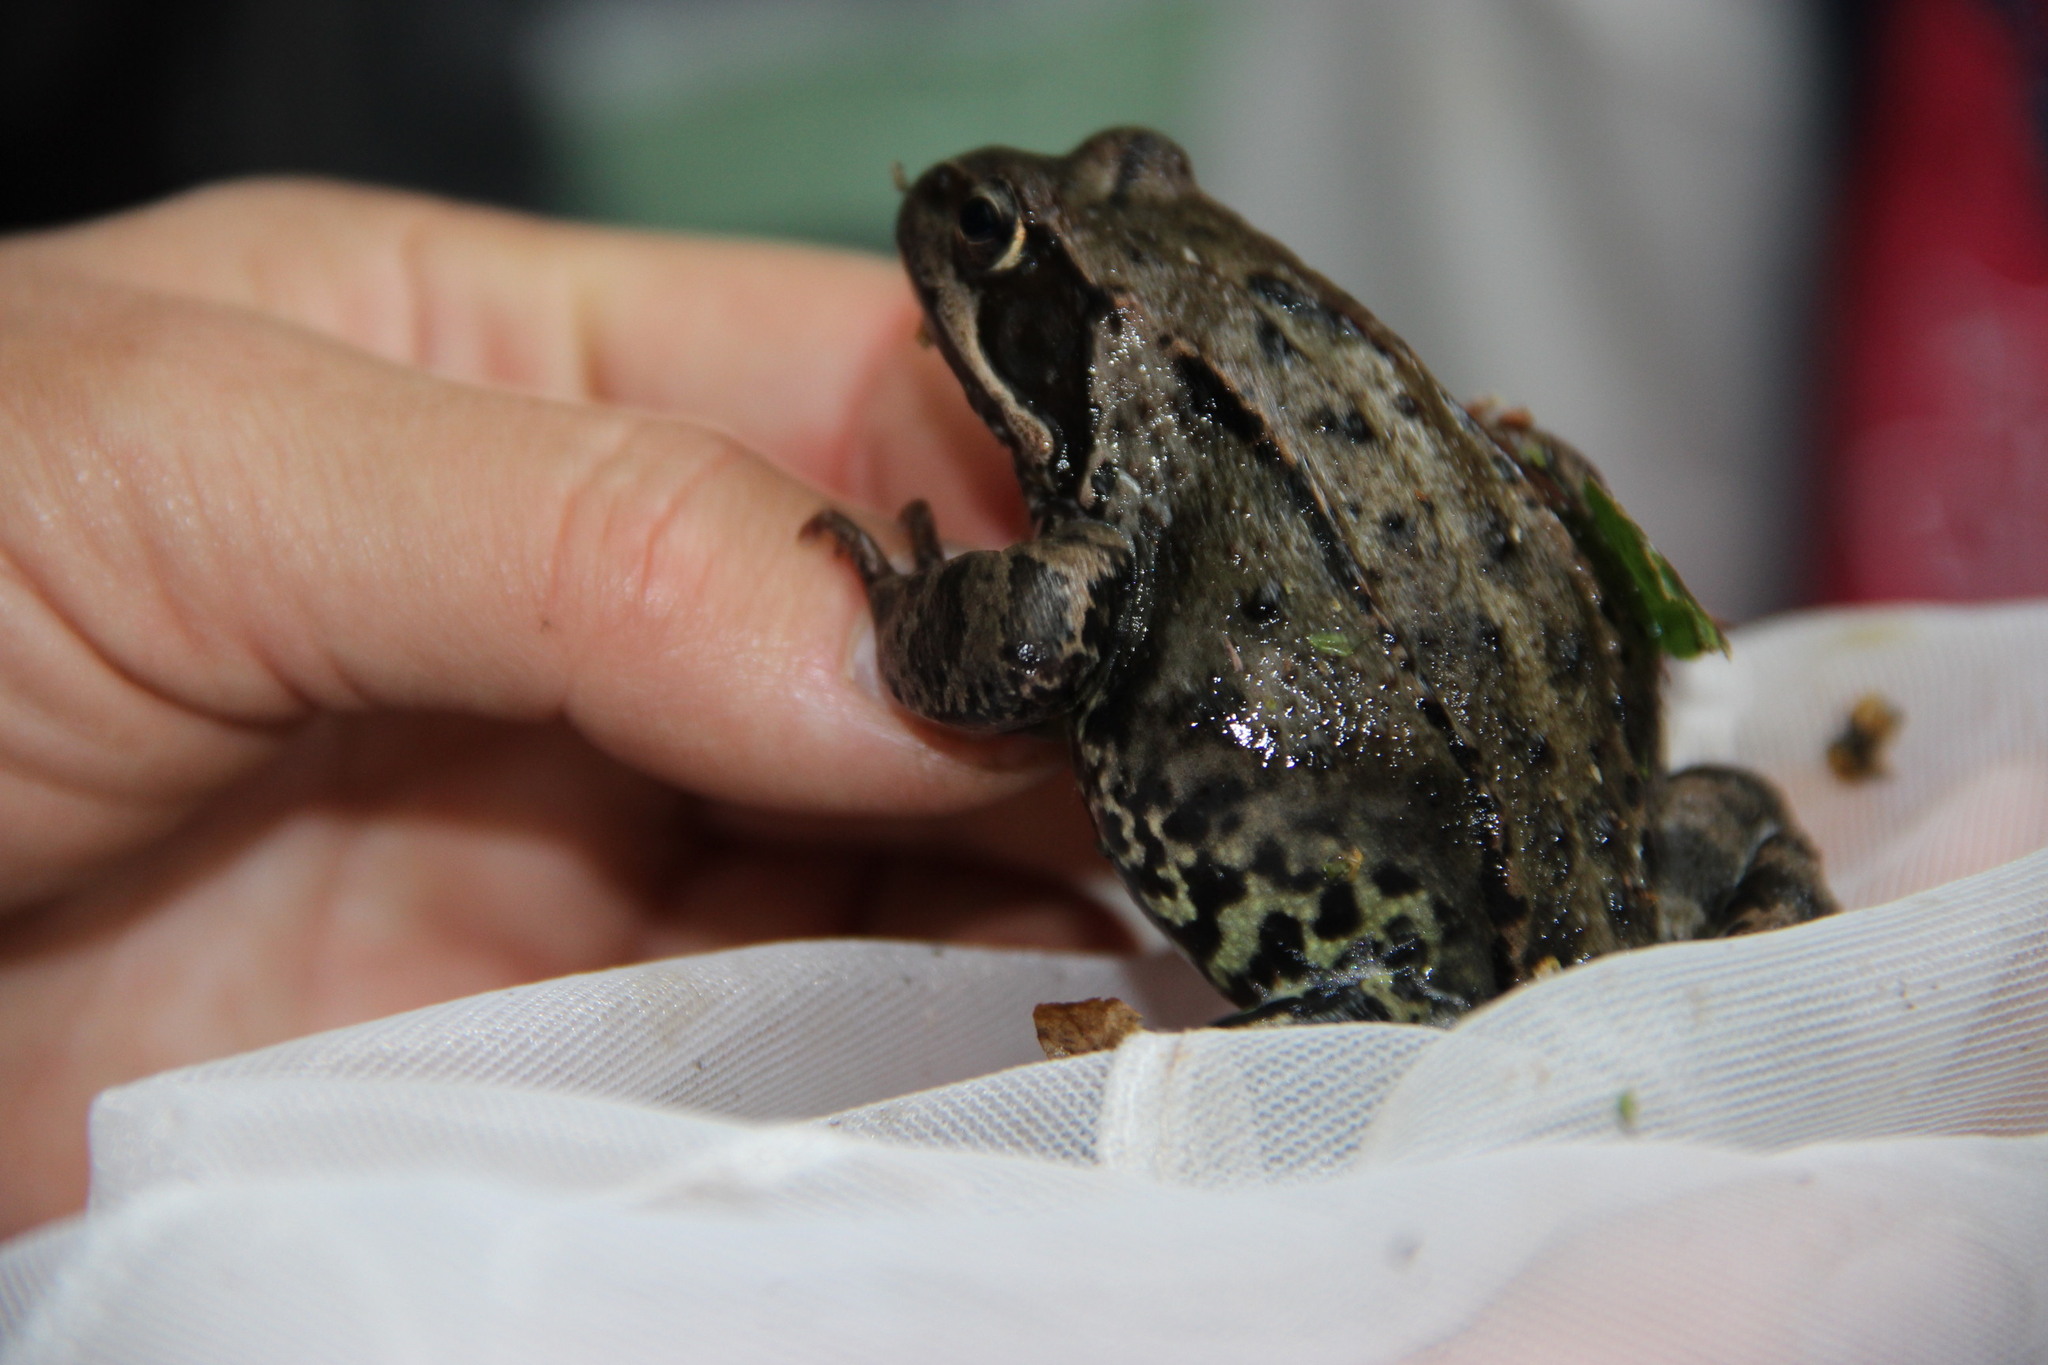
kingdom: Animalia
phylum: Chordata
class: Amphibia
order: Anura
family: Ranidae
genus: Rana
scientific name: Rana temporaria
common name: Common frog
